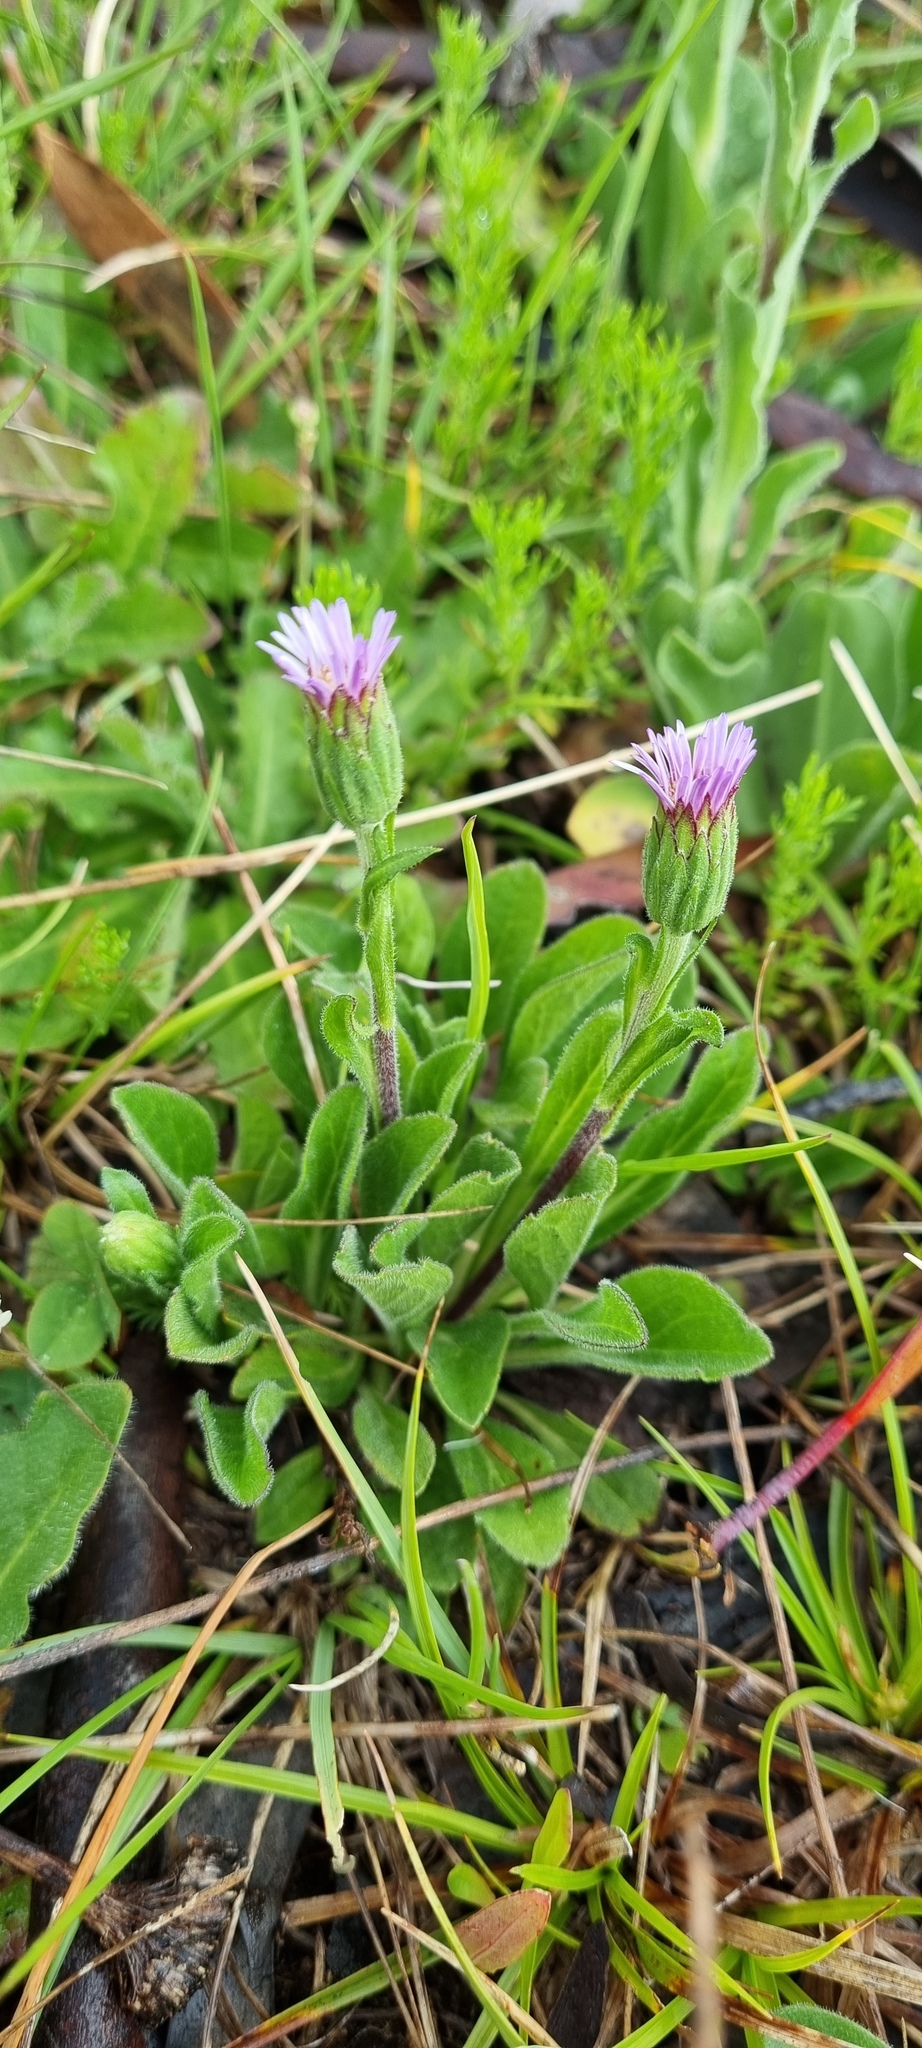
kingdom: Plantae
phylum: Tracheophyta
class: Magnoliopsida
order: Asterales
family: Asteraceae
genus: Pappochroma
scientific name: Pappochroma bellidioides
